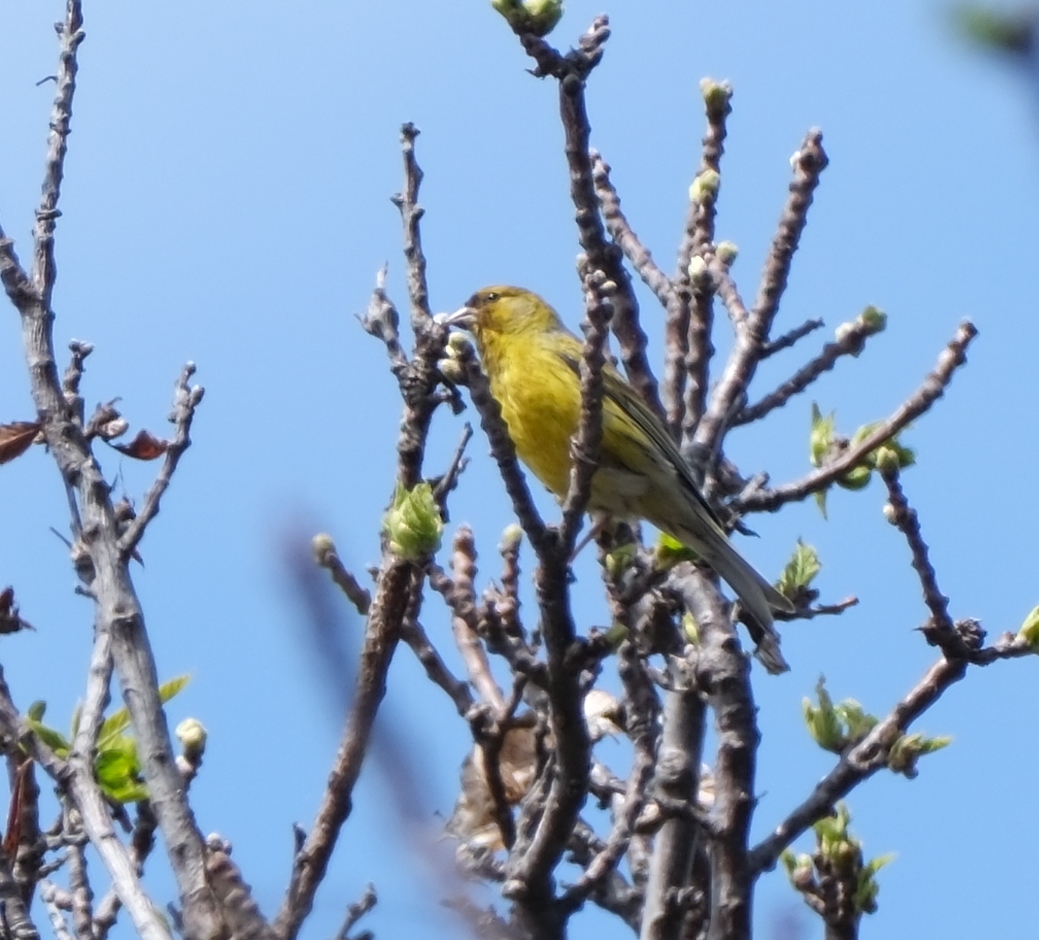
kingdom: Animalia
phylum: Chordata
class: Aves
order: Passeriformes
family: Fringillidae
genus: Serinus
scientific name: Serinus canaria
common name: Atlantic canary
